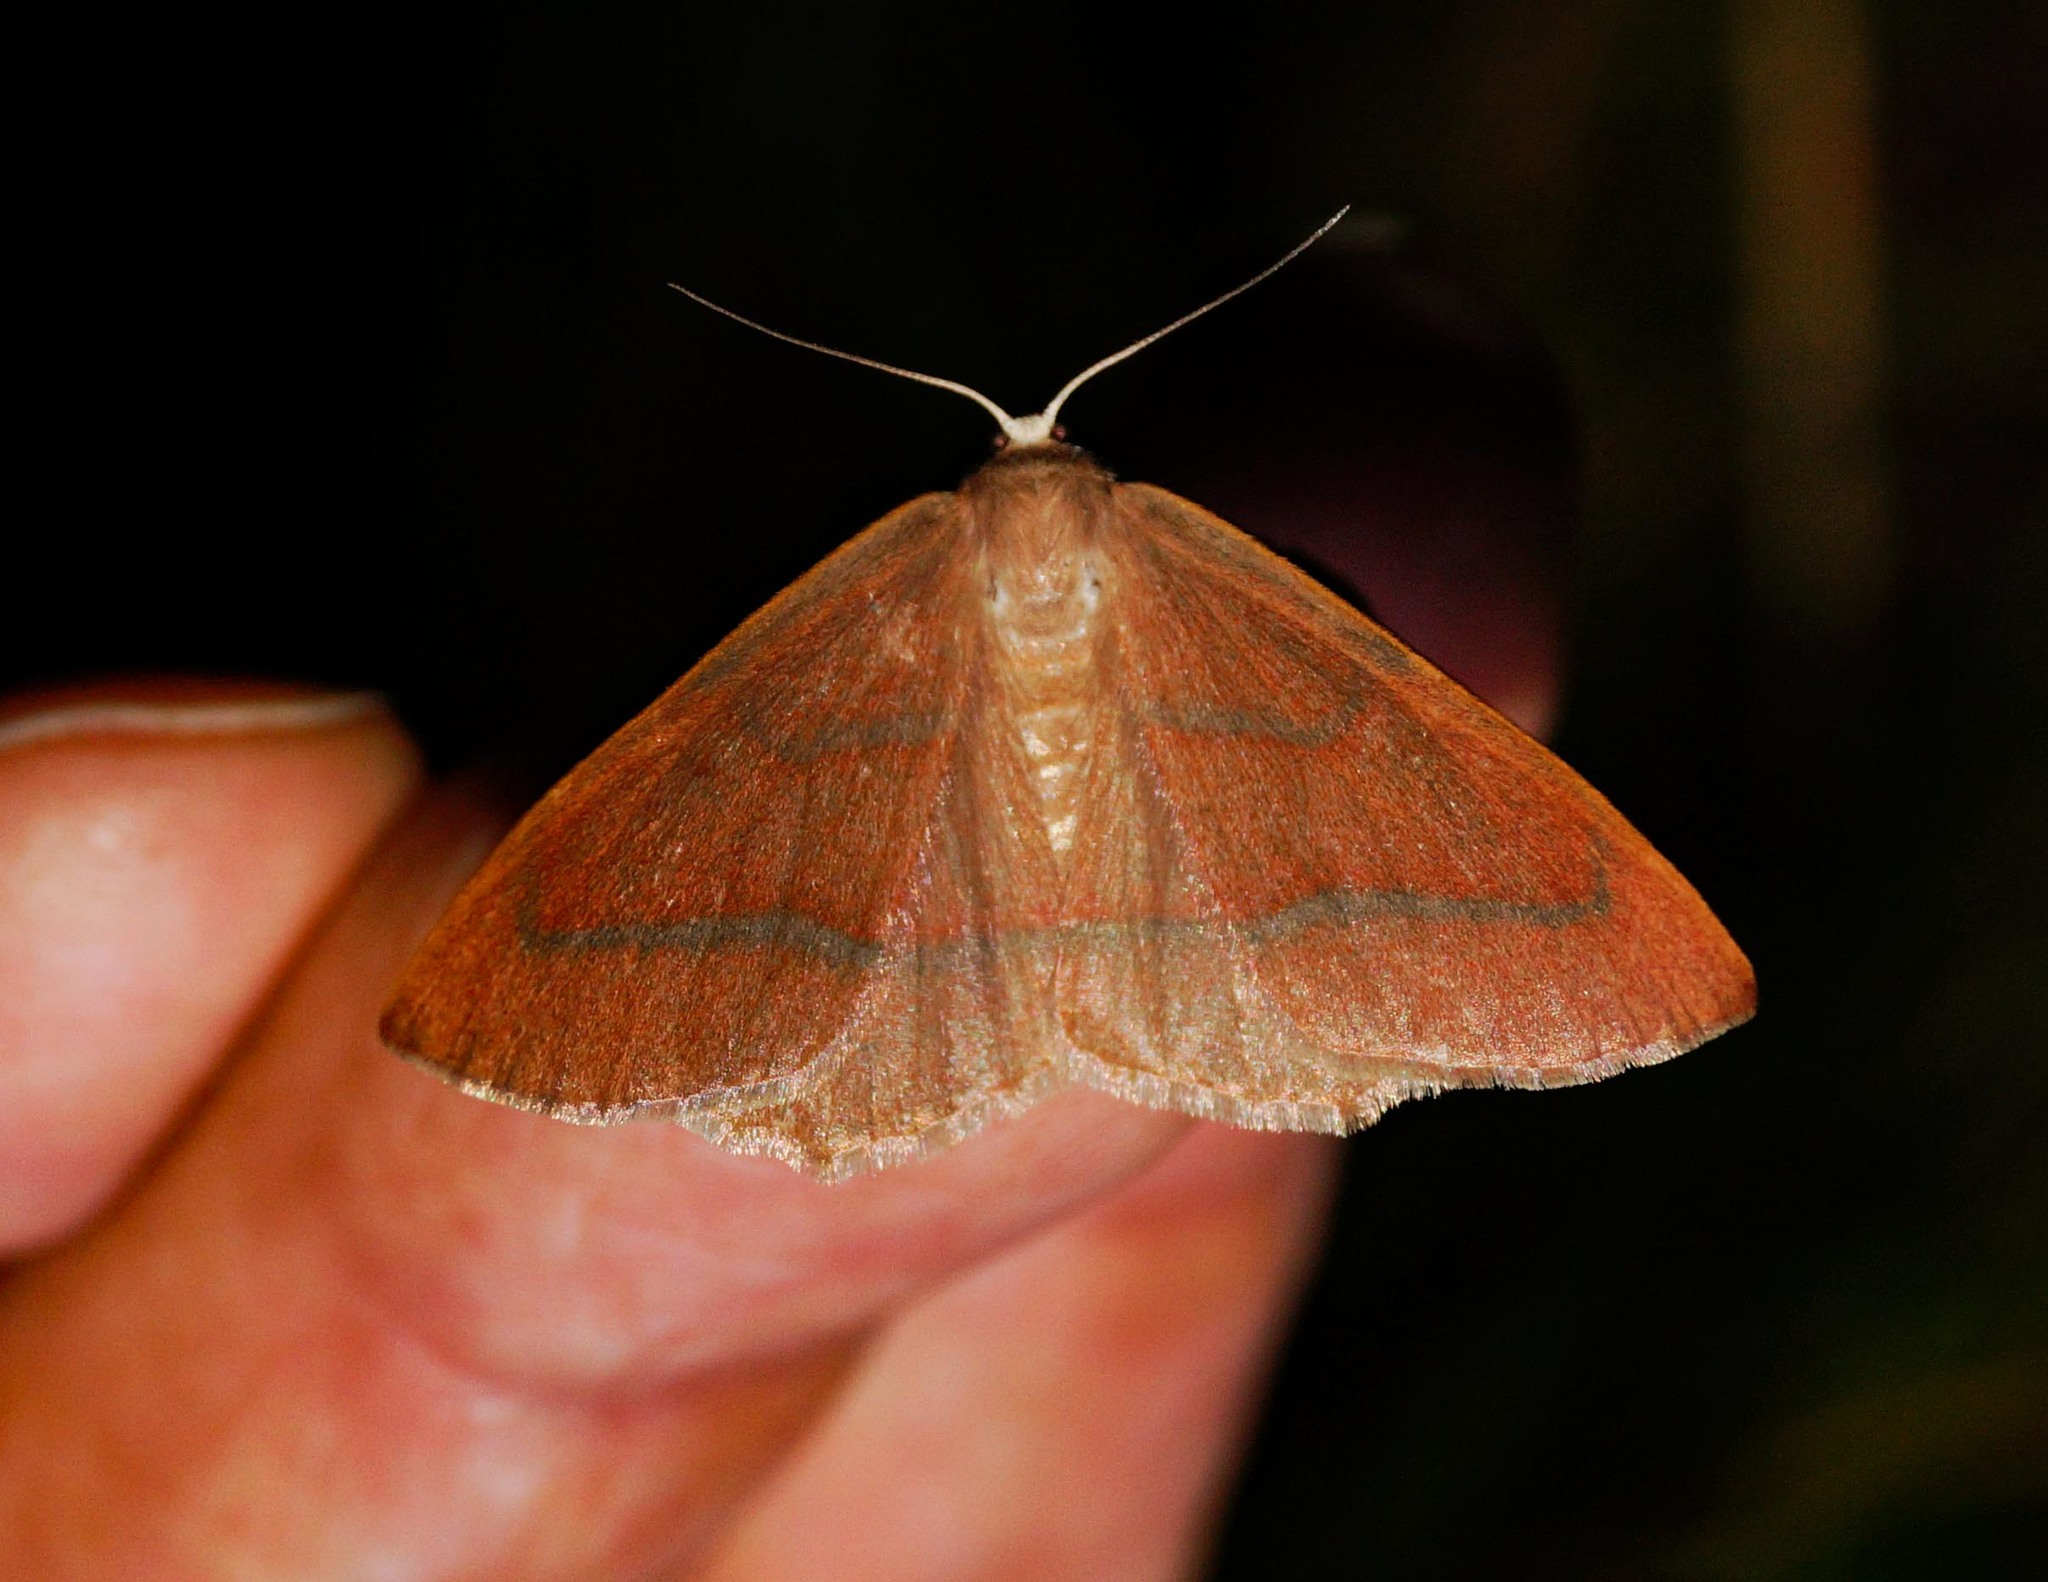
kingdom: Animalia
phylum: Arthropoda
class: Insecta
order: Lepidoptera
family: Geometridae
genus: Hylaea
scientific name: Hylaea fasciaria
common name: Barred red
